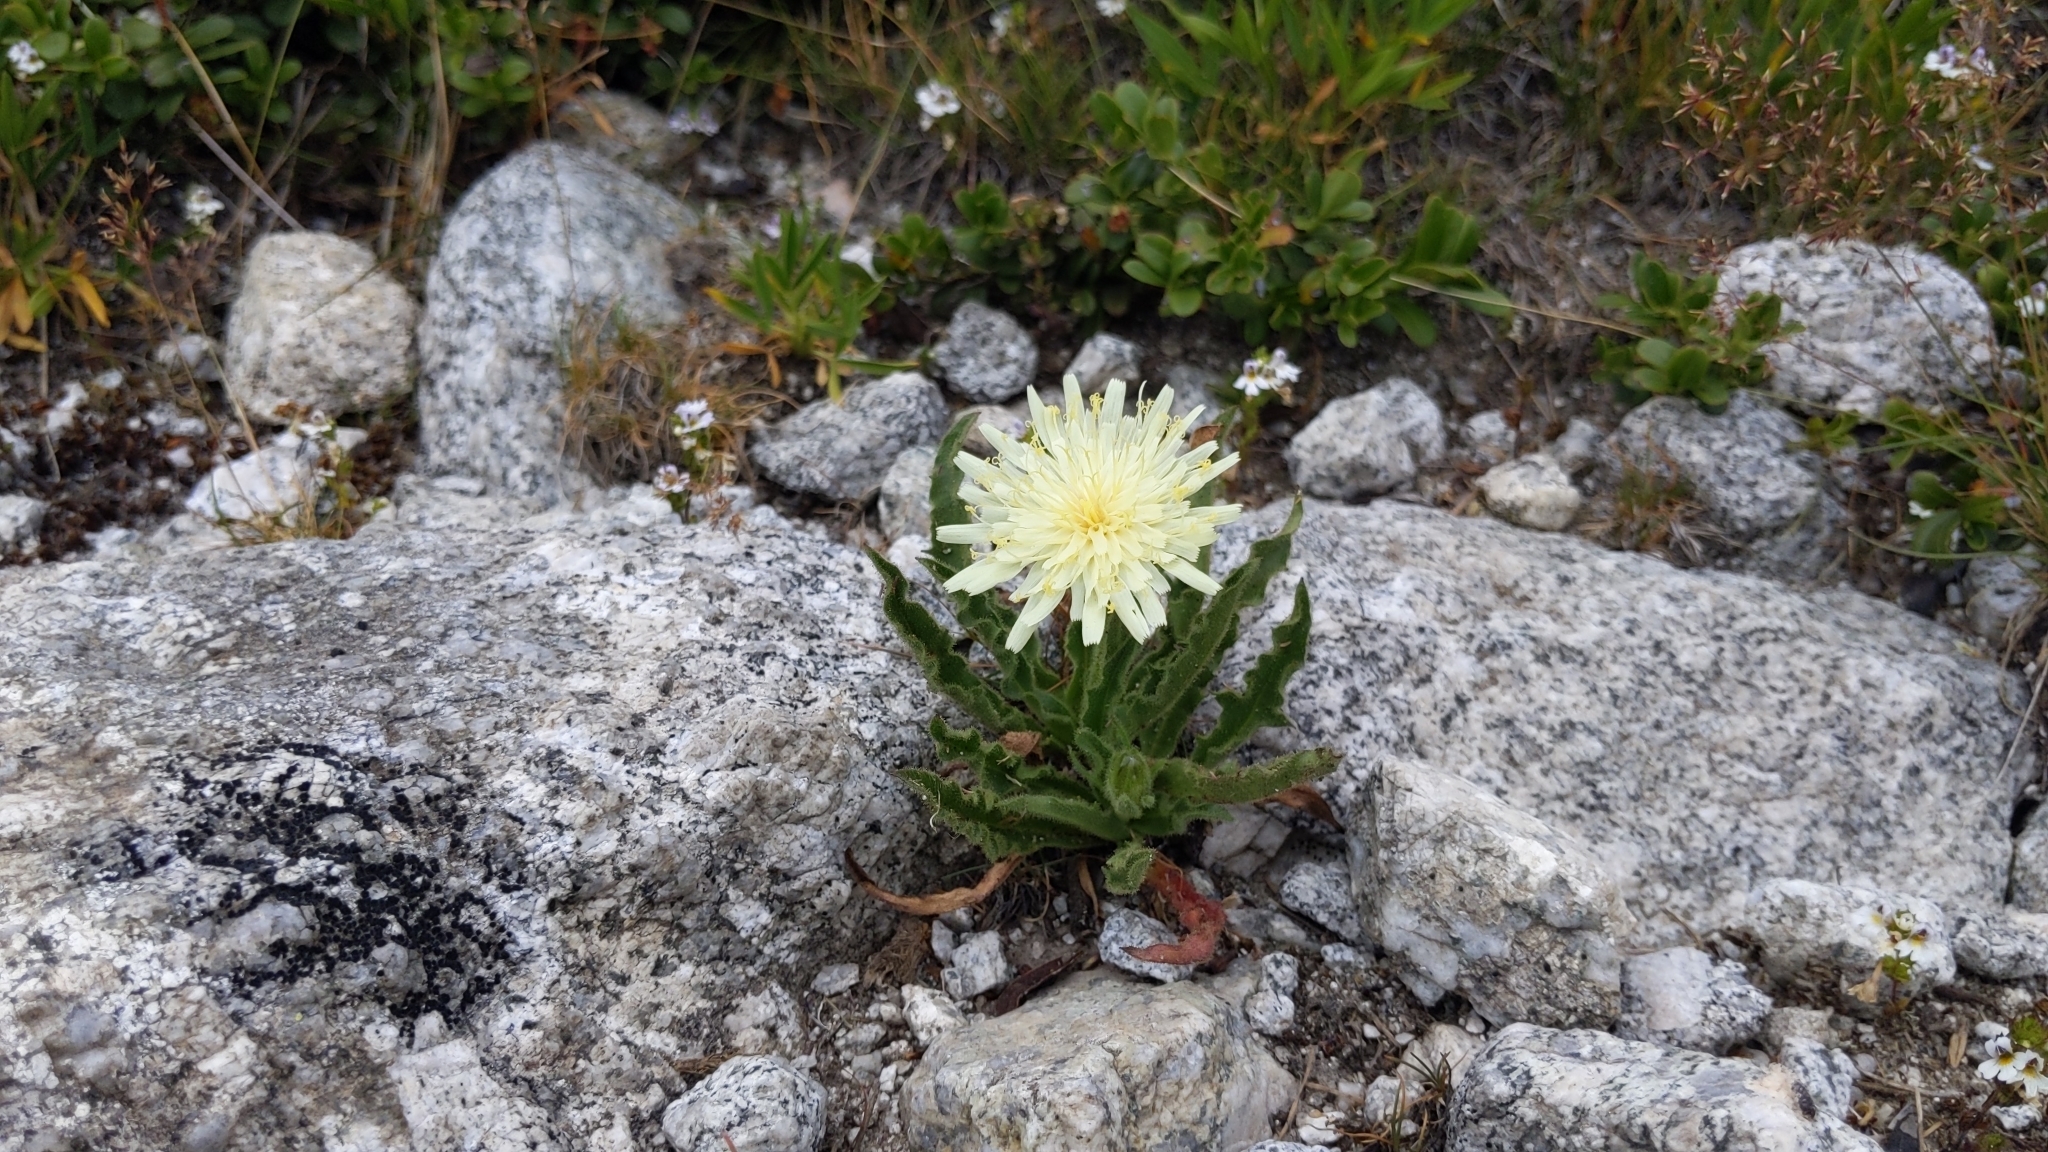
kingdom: Plantae
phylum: Tracheophyta
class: Magnoliopsida
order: Asterales
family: Asteraceae
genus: Schlagintweitia
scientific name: Schlagintweitia intybacea
